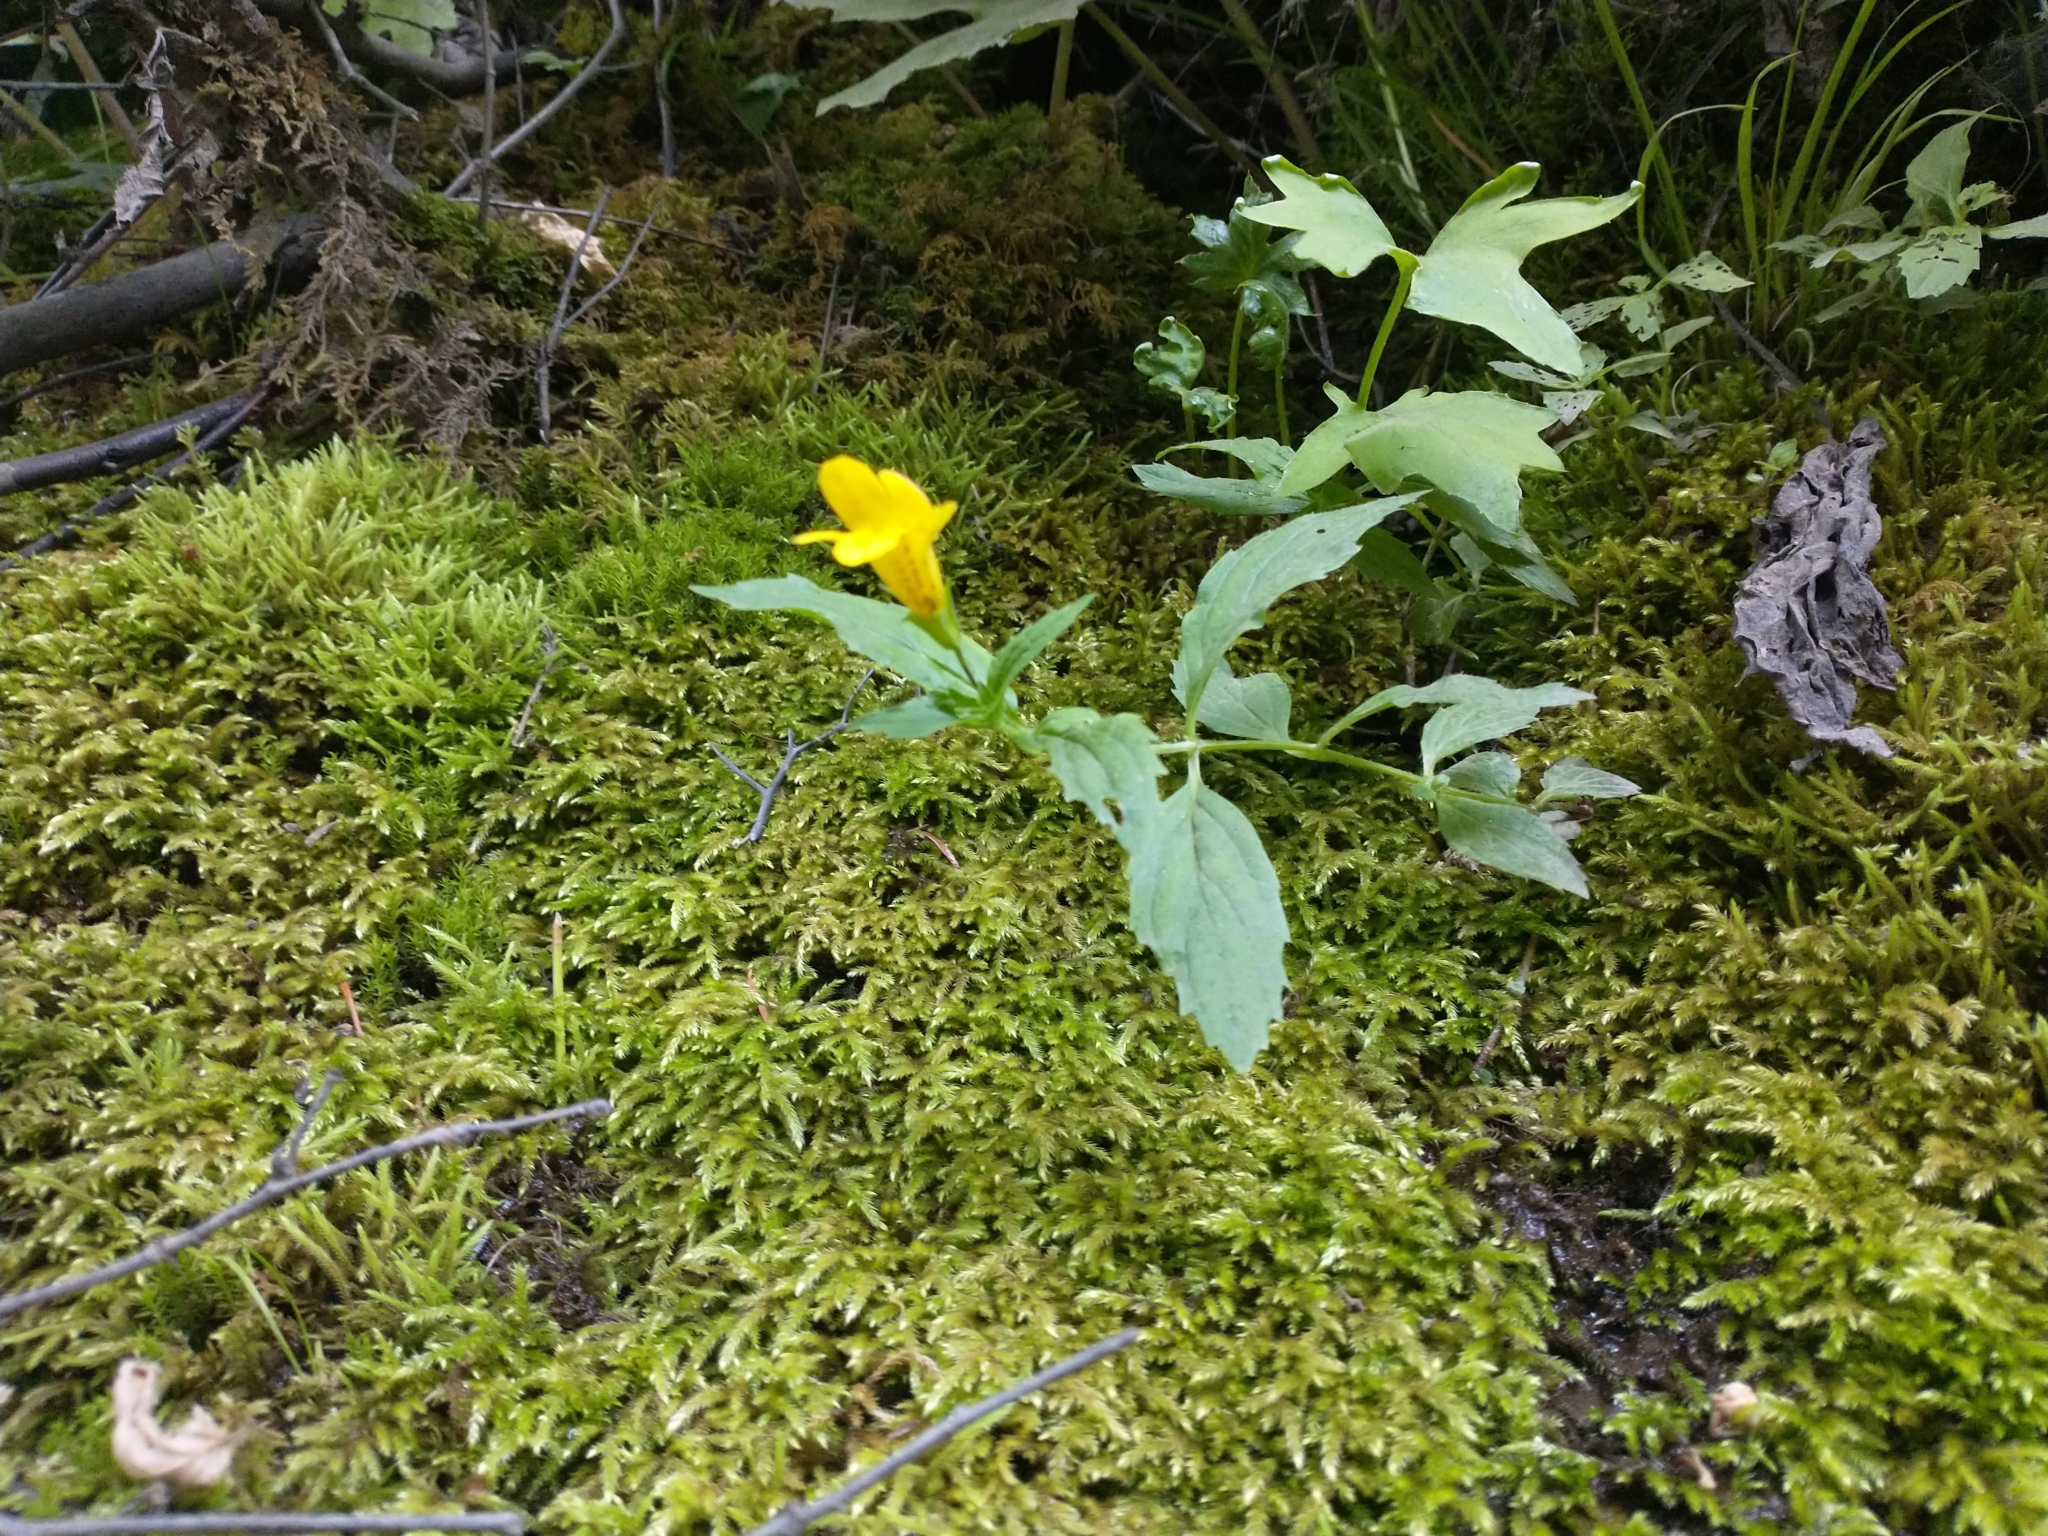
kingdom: Plantae
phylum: Tracheophyta
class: Magnoliopsida
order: Lamiales
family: Phrymaceae
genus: Erythranthe
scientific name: Erythranthe dentata
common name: Coastal monkeyflower
